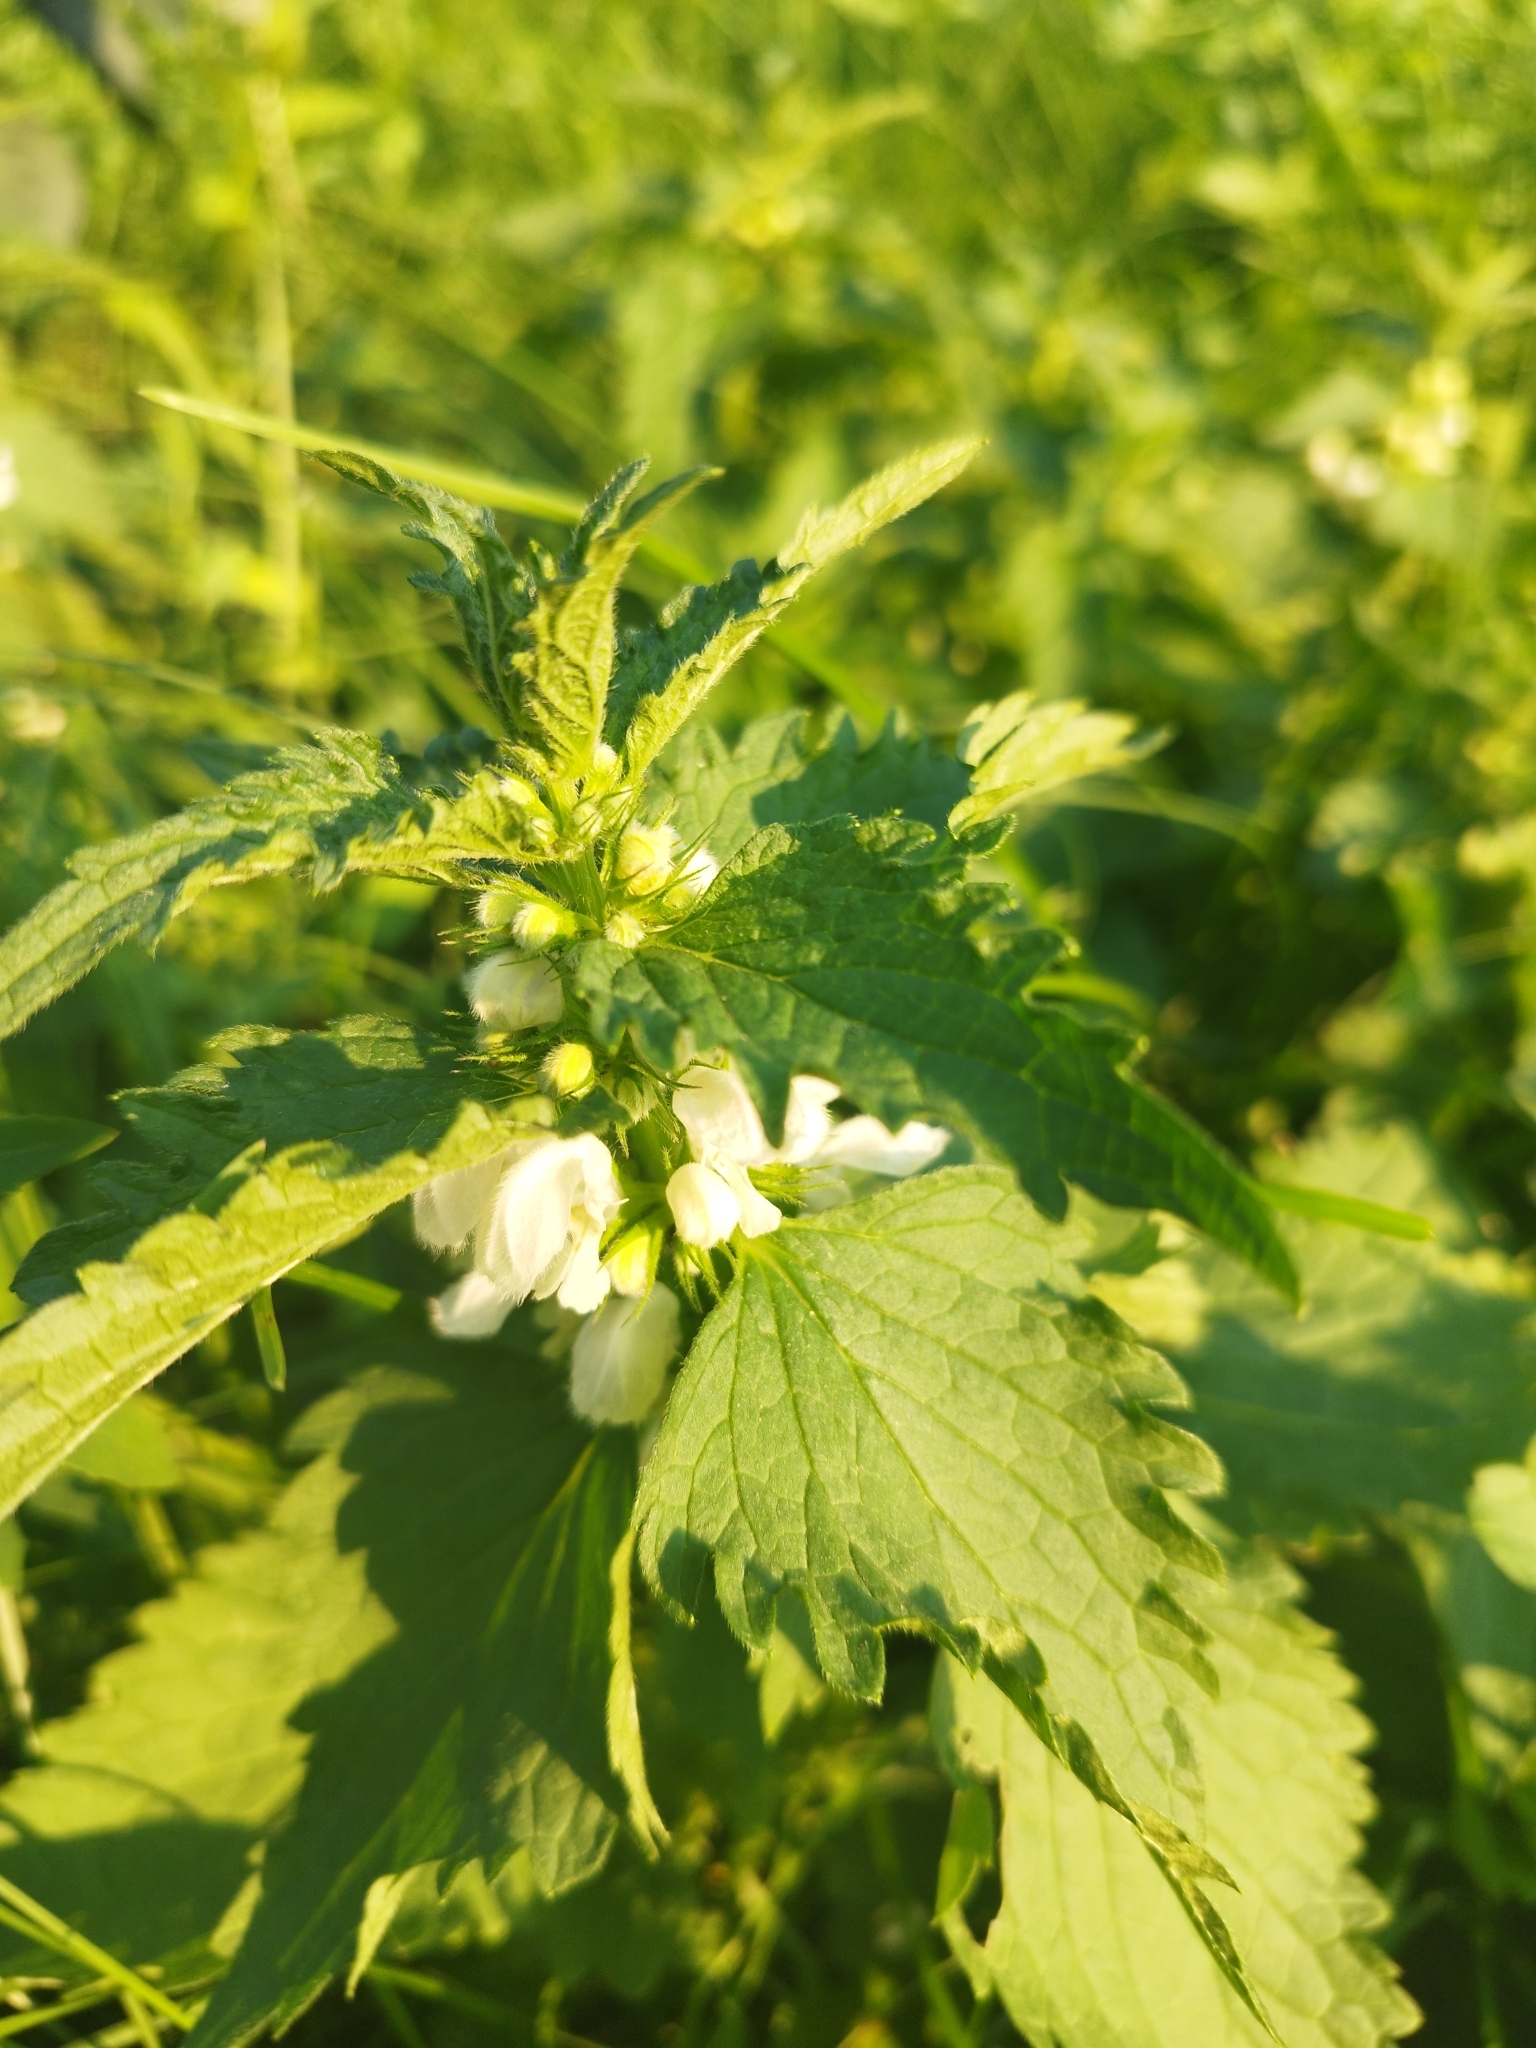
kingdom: Plantae
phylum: Tracheophyta
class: Magnoliopsida
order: Lamiales
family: Lamiaceae
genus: Lamium
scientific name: Lamium album
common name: White dead-nettle
